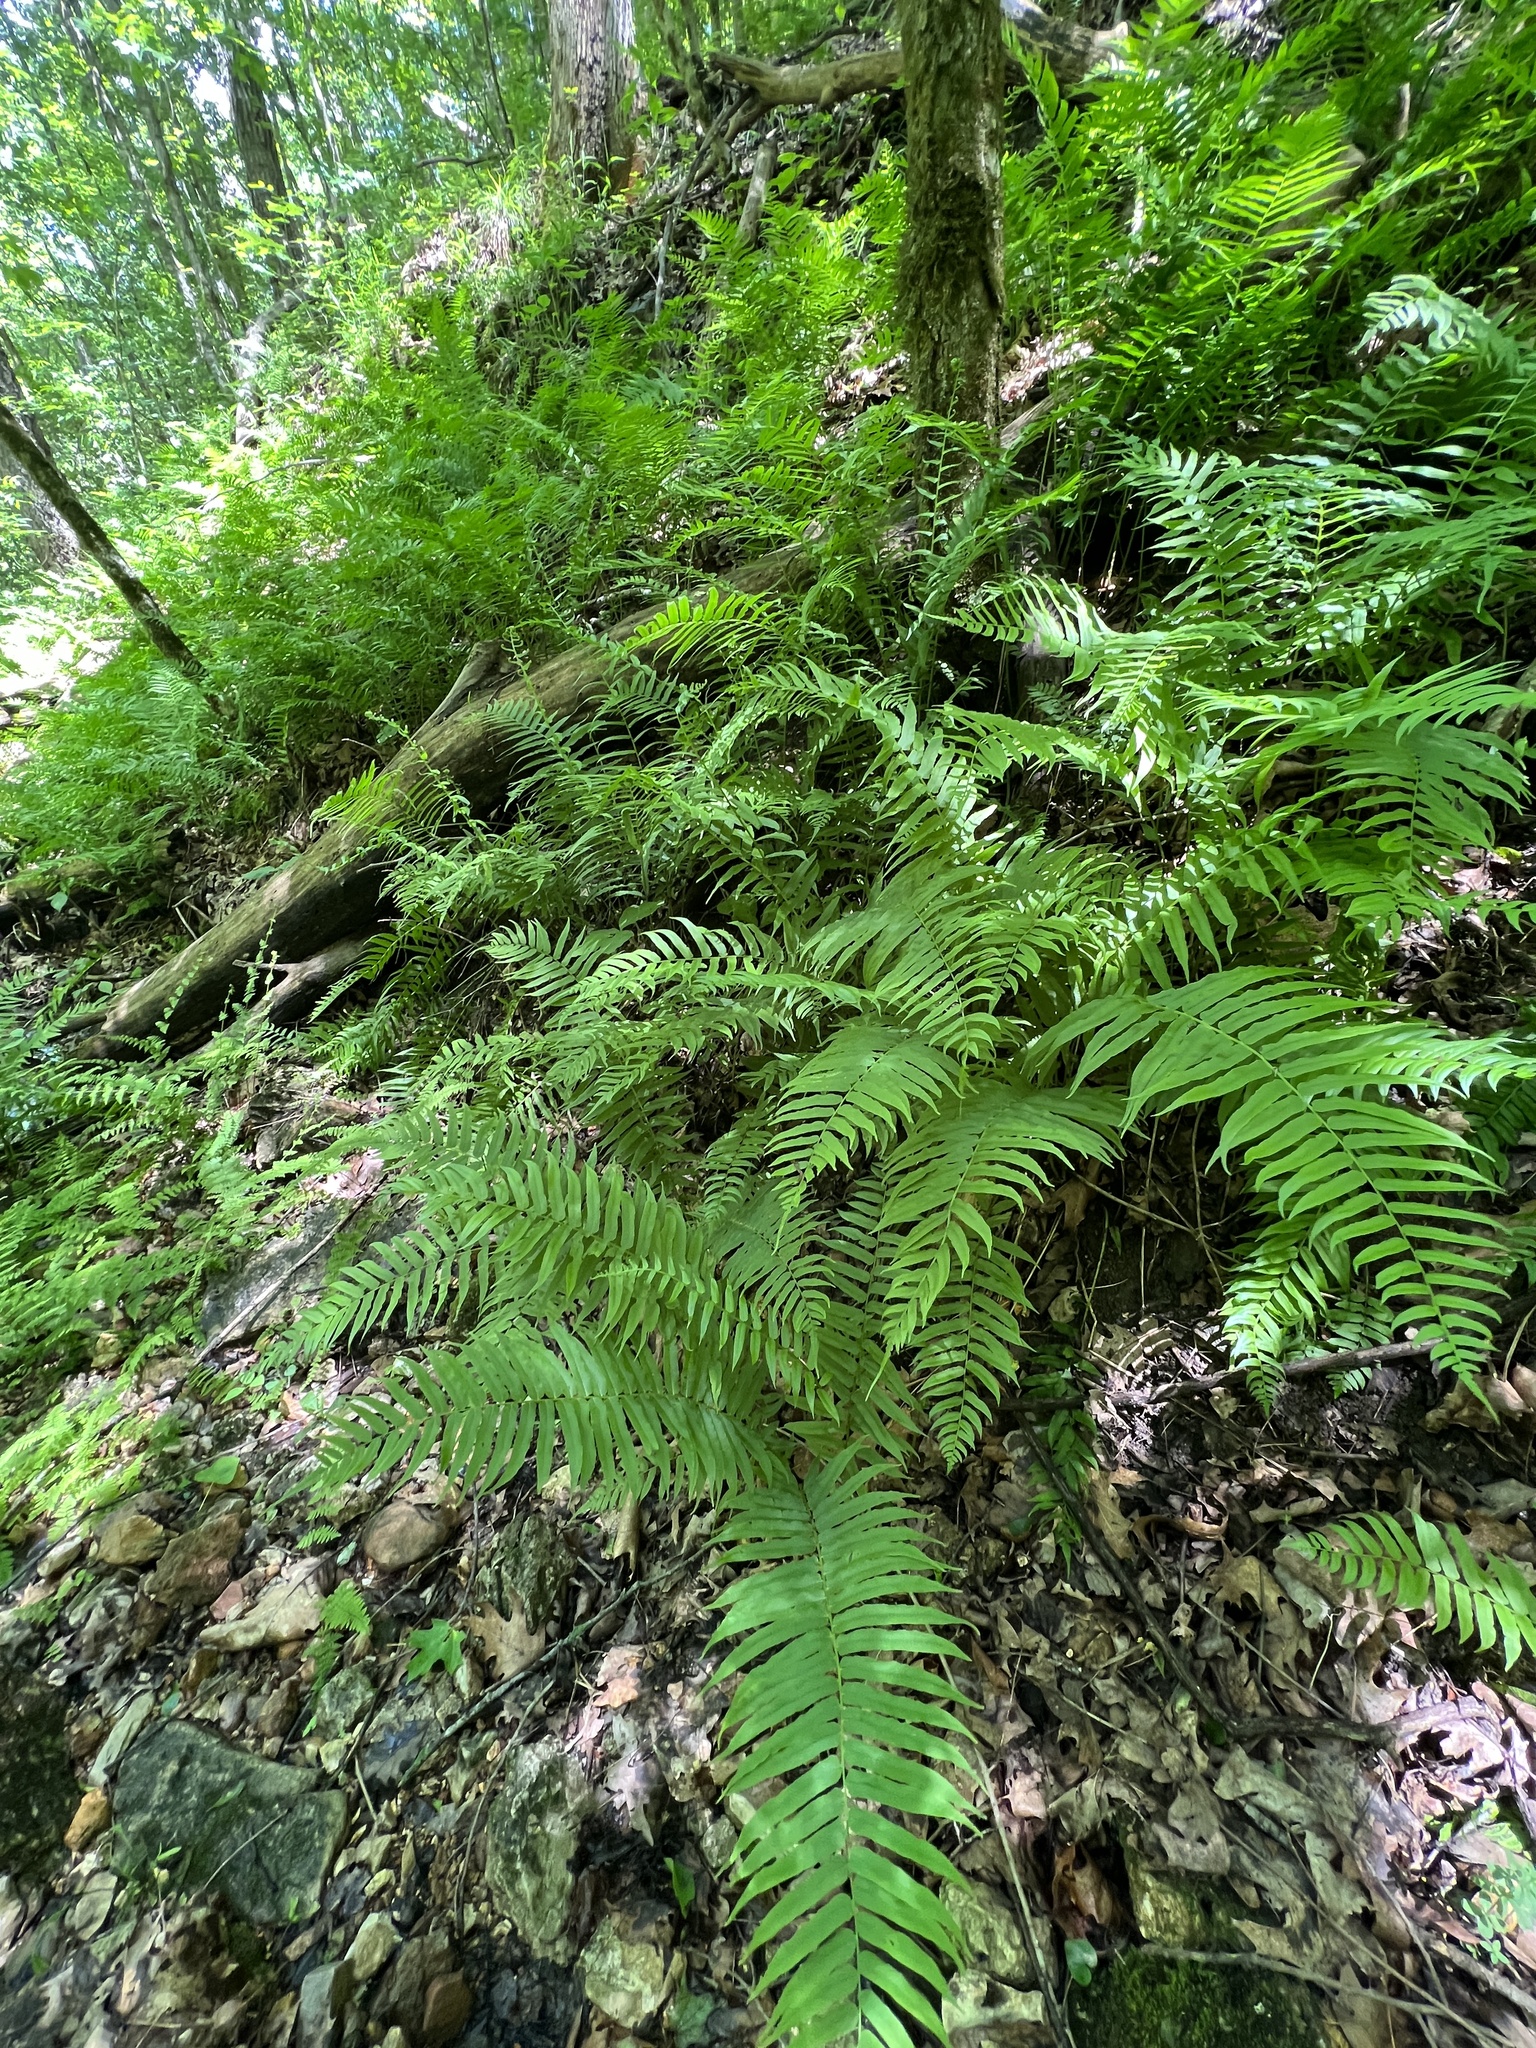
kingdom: Plantae
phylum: Tracheophyta
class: Polypodiopsida
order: Polypodiales
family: Diplaziopsidaceae
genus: Homalosorus
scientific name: Homalosorus pycnocarpos
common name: Glade fern
